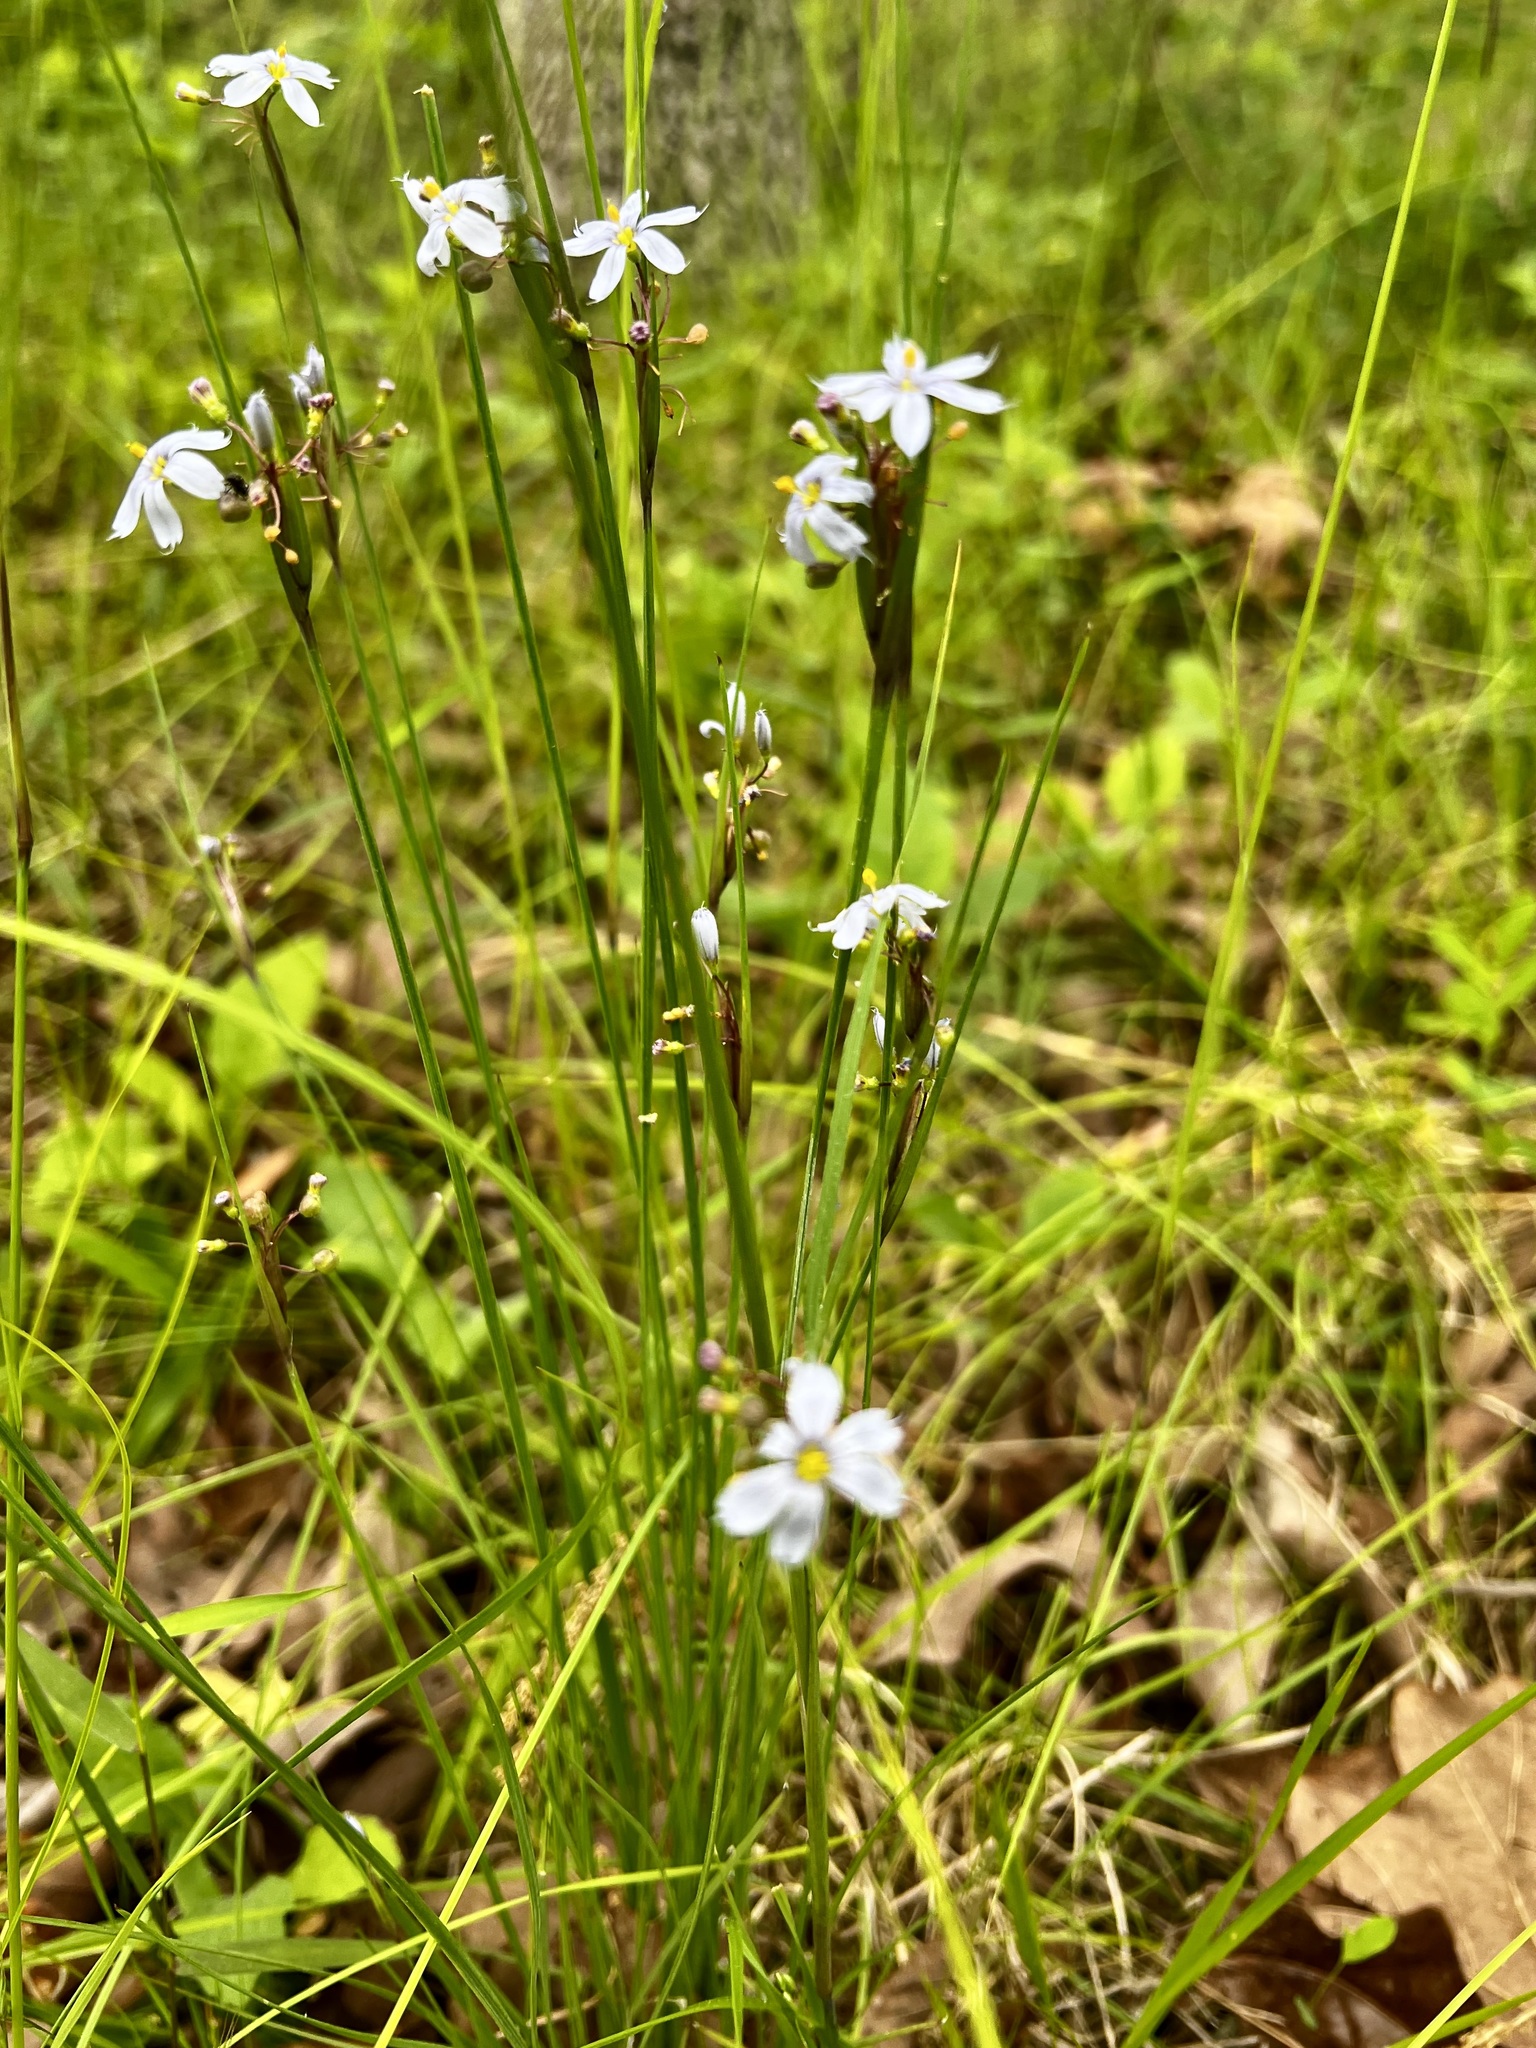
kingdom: Plantae
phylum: Tracheophyta
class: Liliopsida
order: Asparagales
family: Iridaceae
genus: Sisyrinchium
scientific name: Sisyrinchium albidum
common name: Pale blue-eyed-grass
